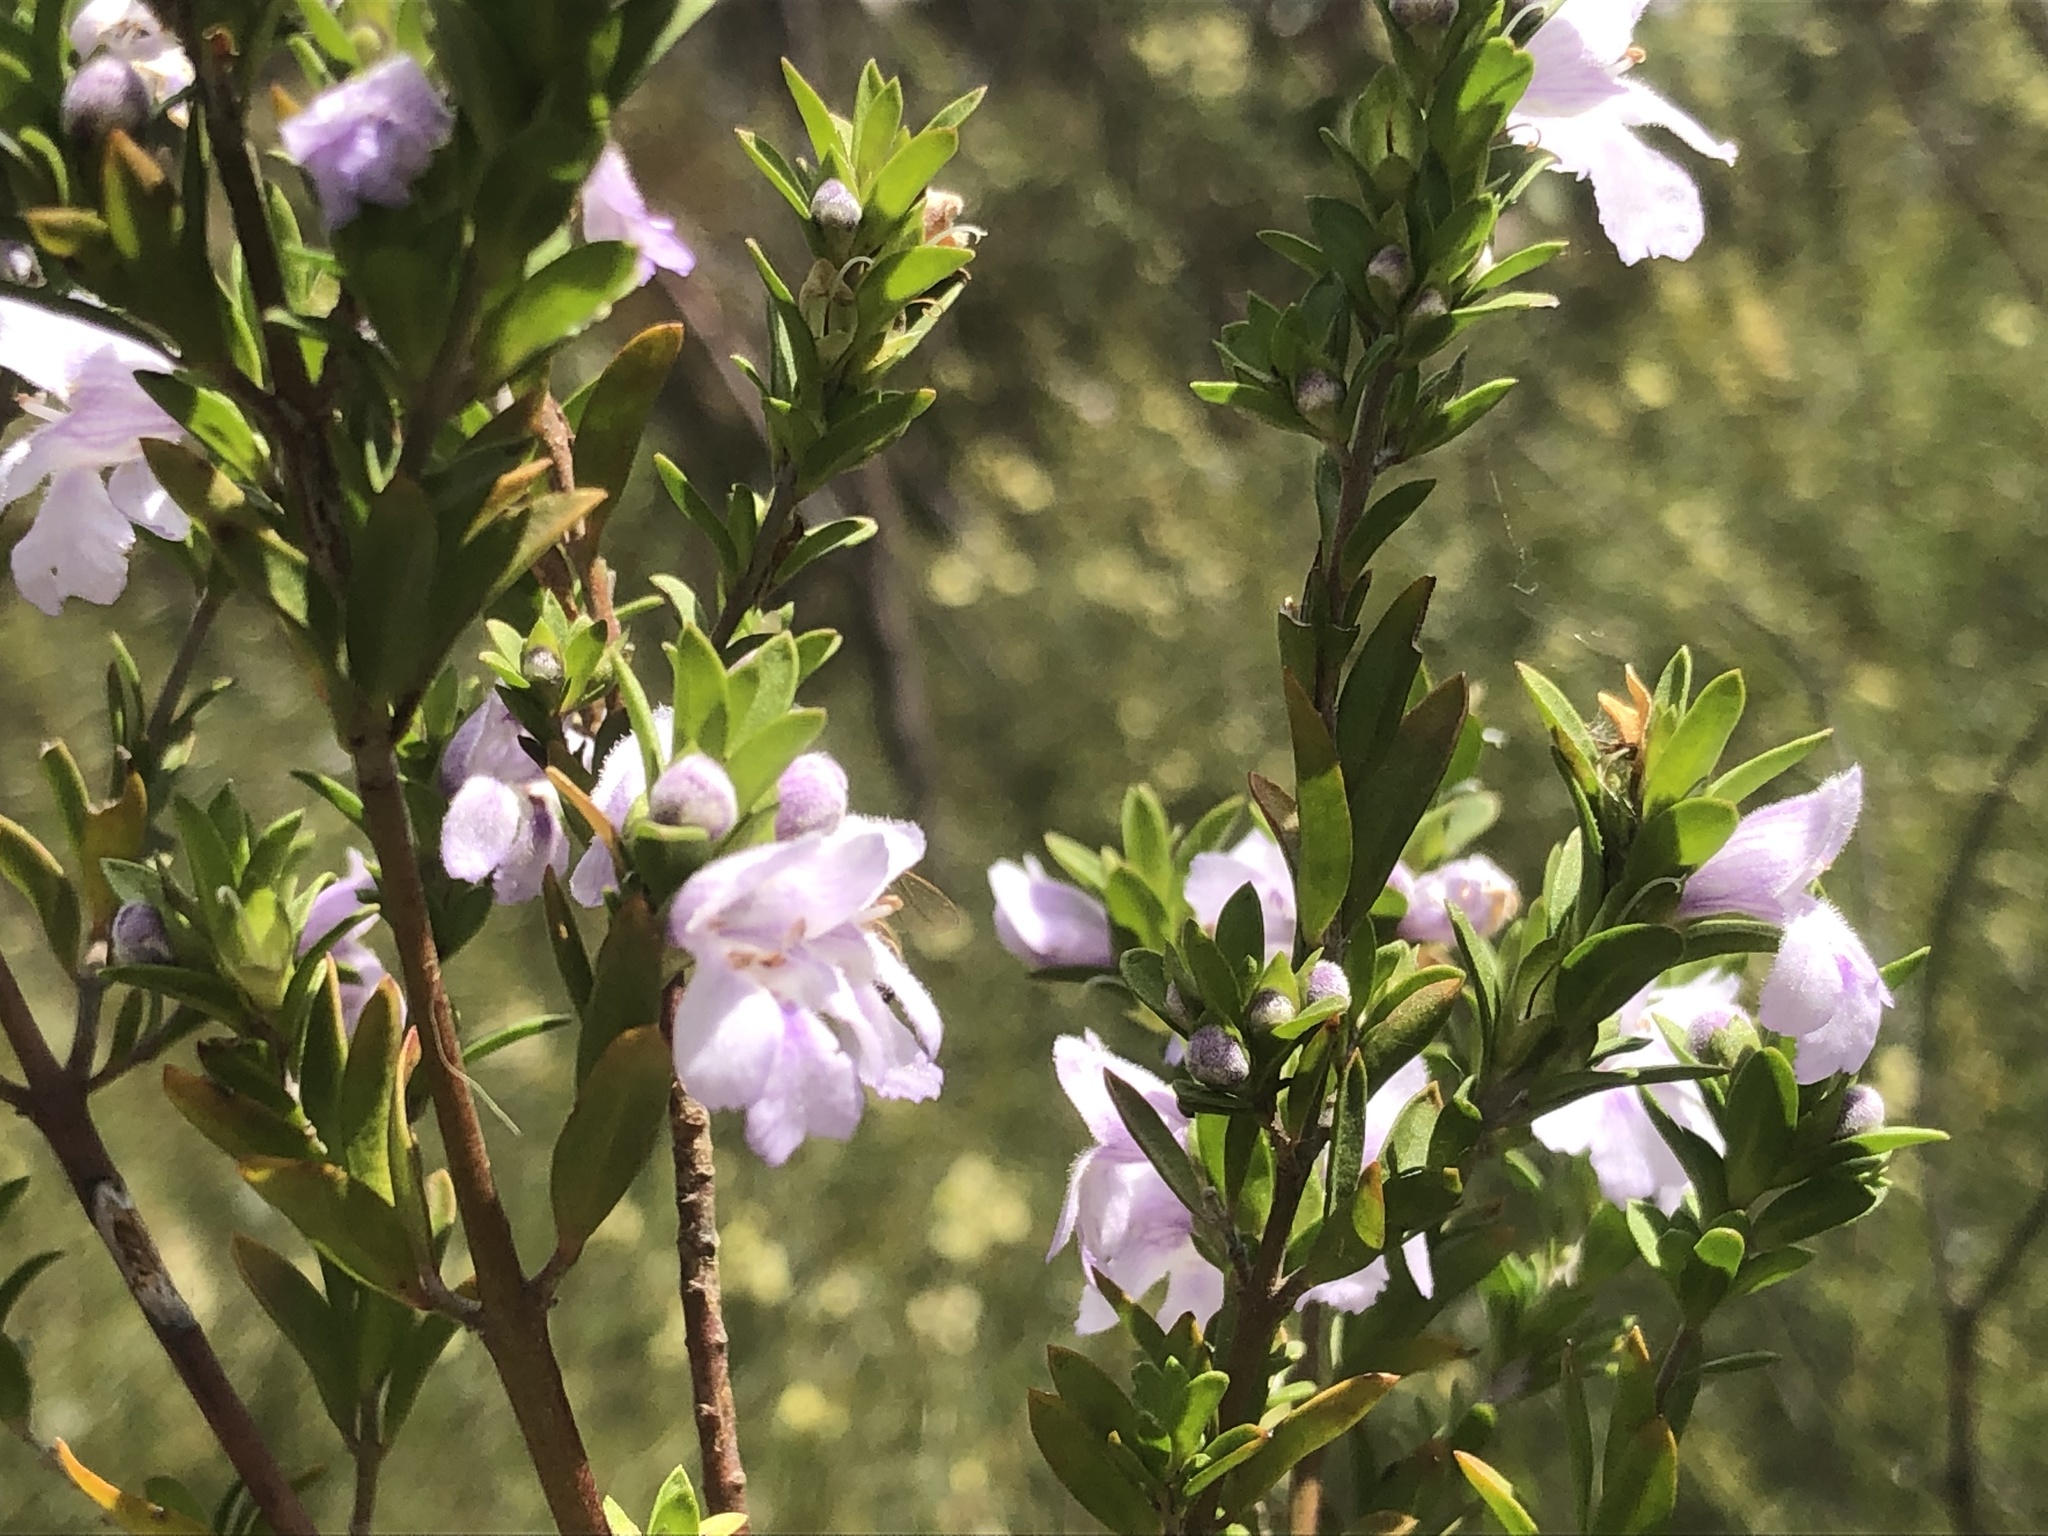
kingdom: Plantae
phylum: Tracheophyta
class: Magnoliopsida
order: Lamiales
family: Lamiaceae
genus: Prostanthera
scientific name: Prostanthera behriana
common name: Downy mintbush
